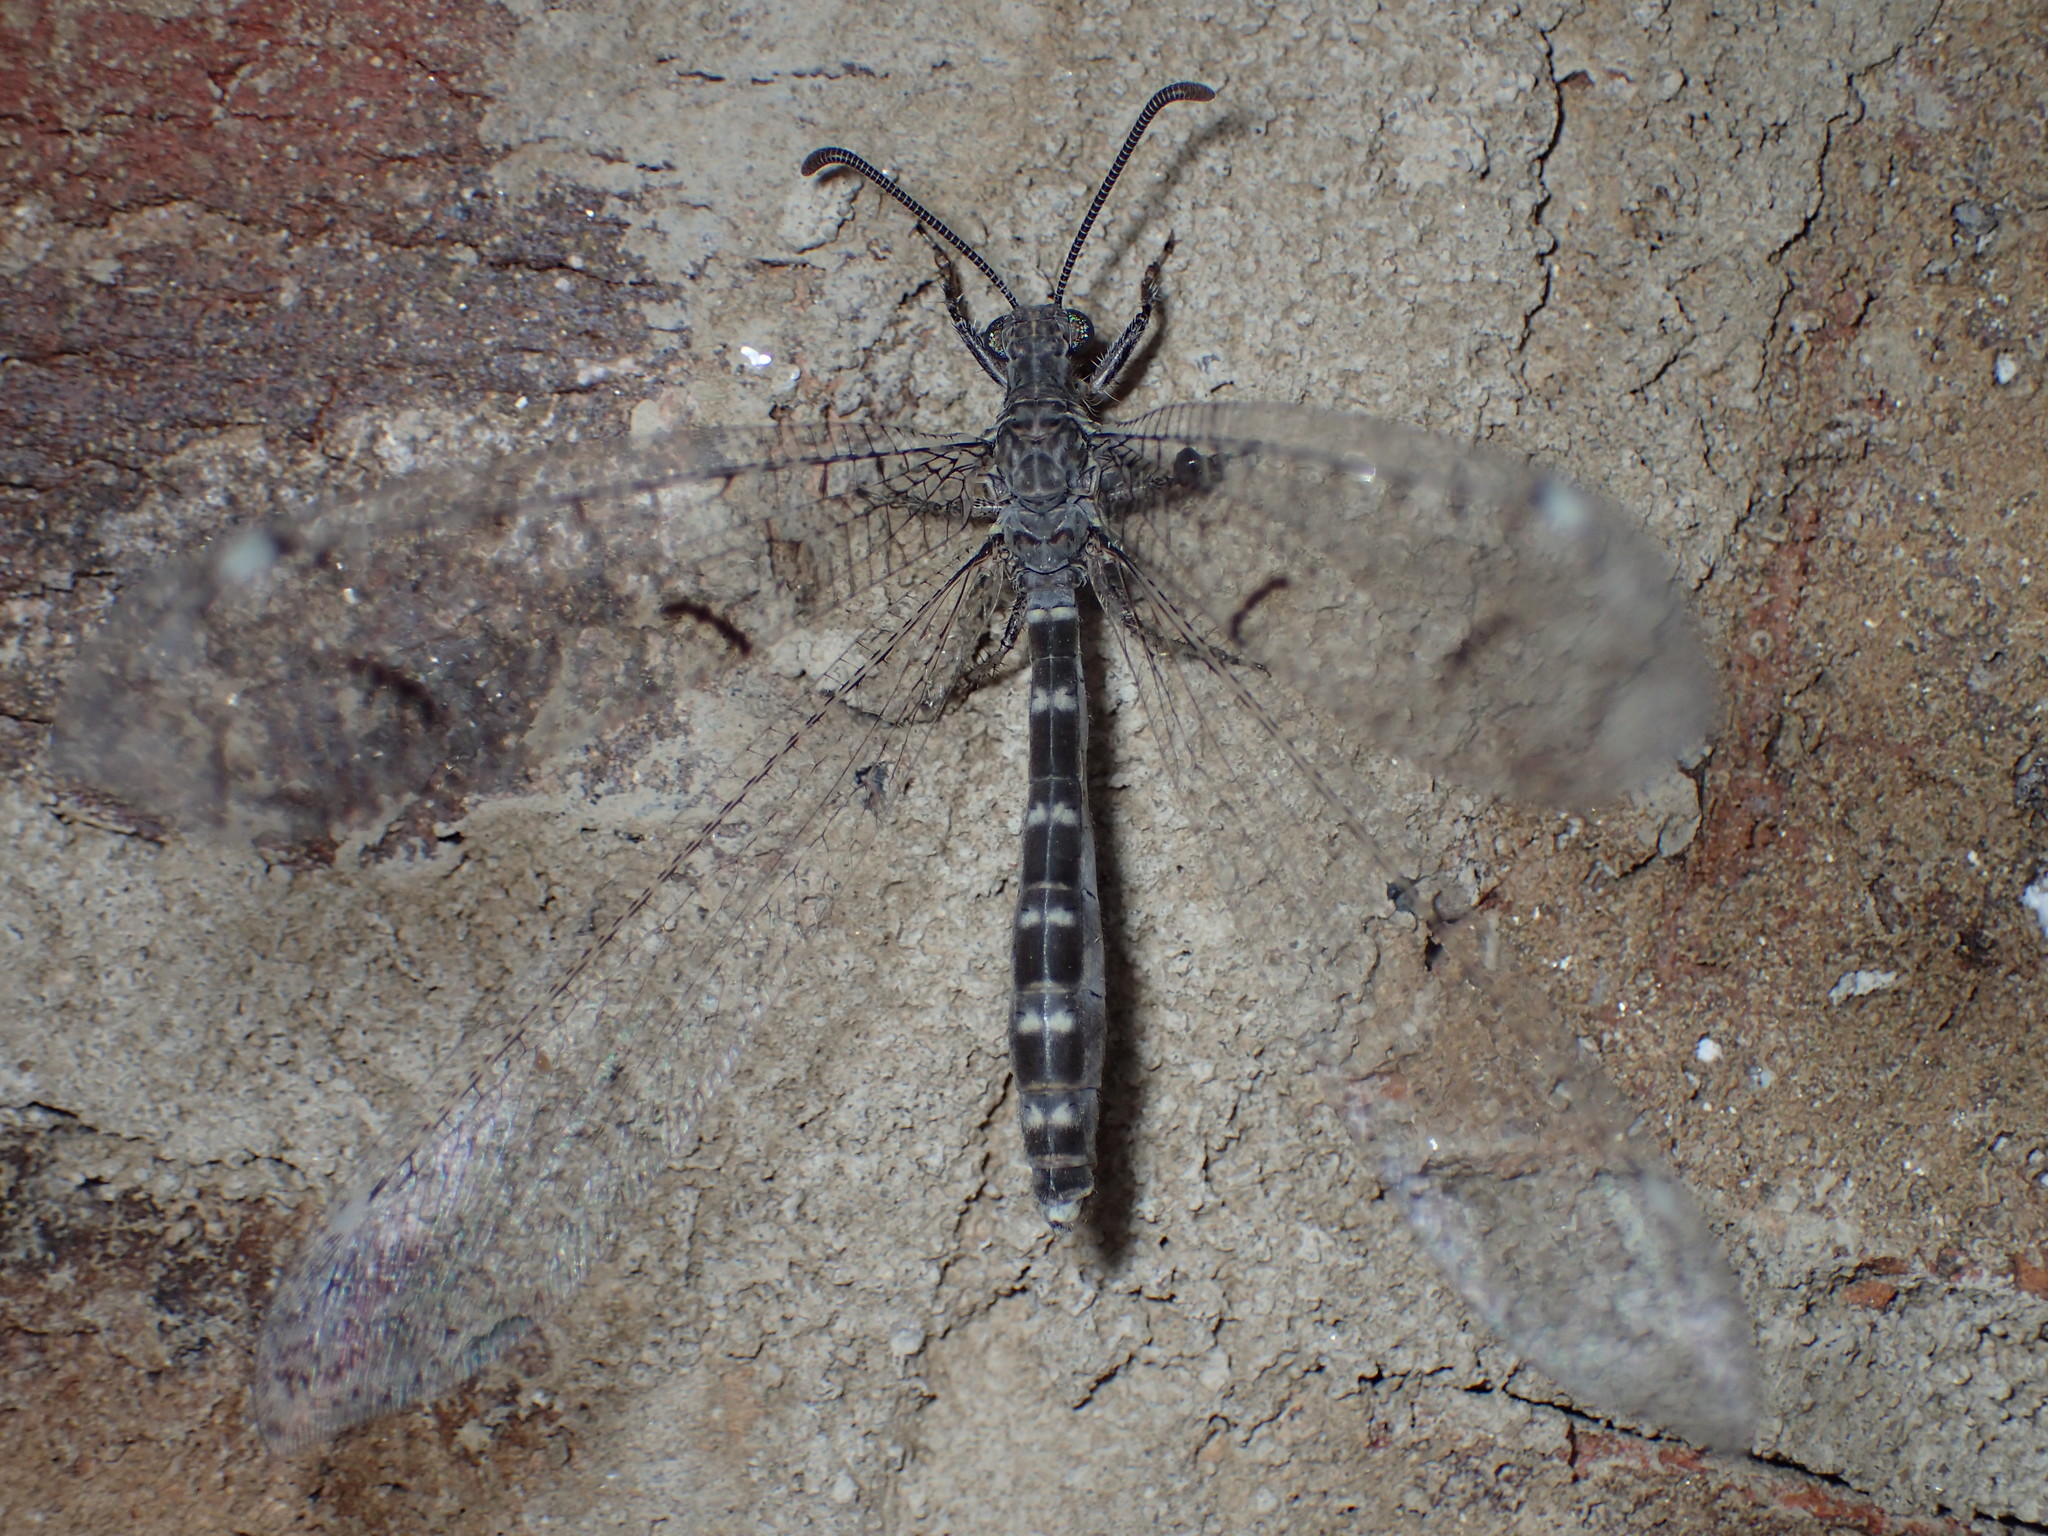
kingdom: Animalia
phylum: Arthropoda
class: Insecta
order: Neuroptera
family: Myrmeleontidae
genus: Euptilon
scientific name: Euptilon ornatum
